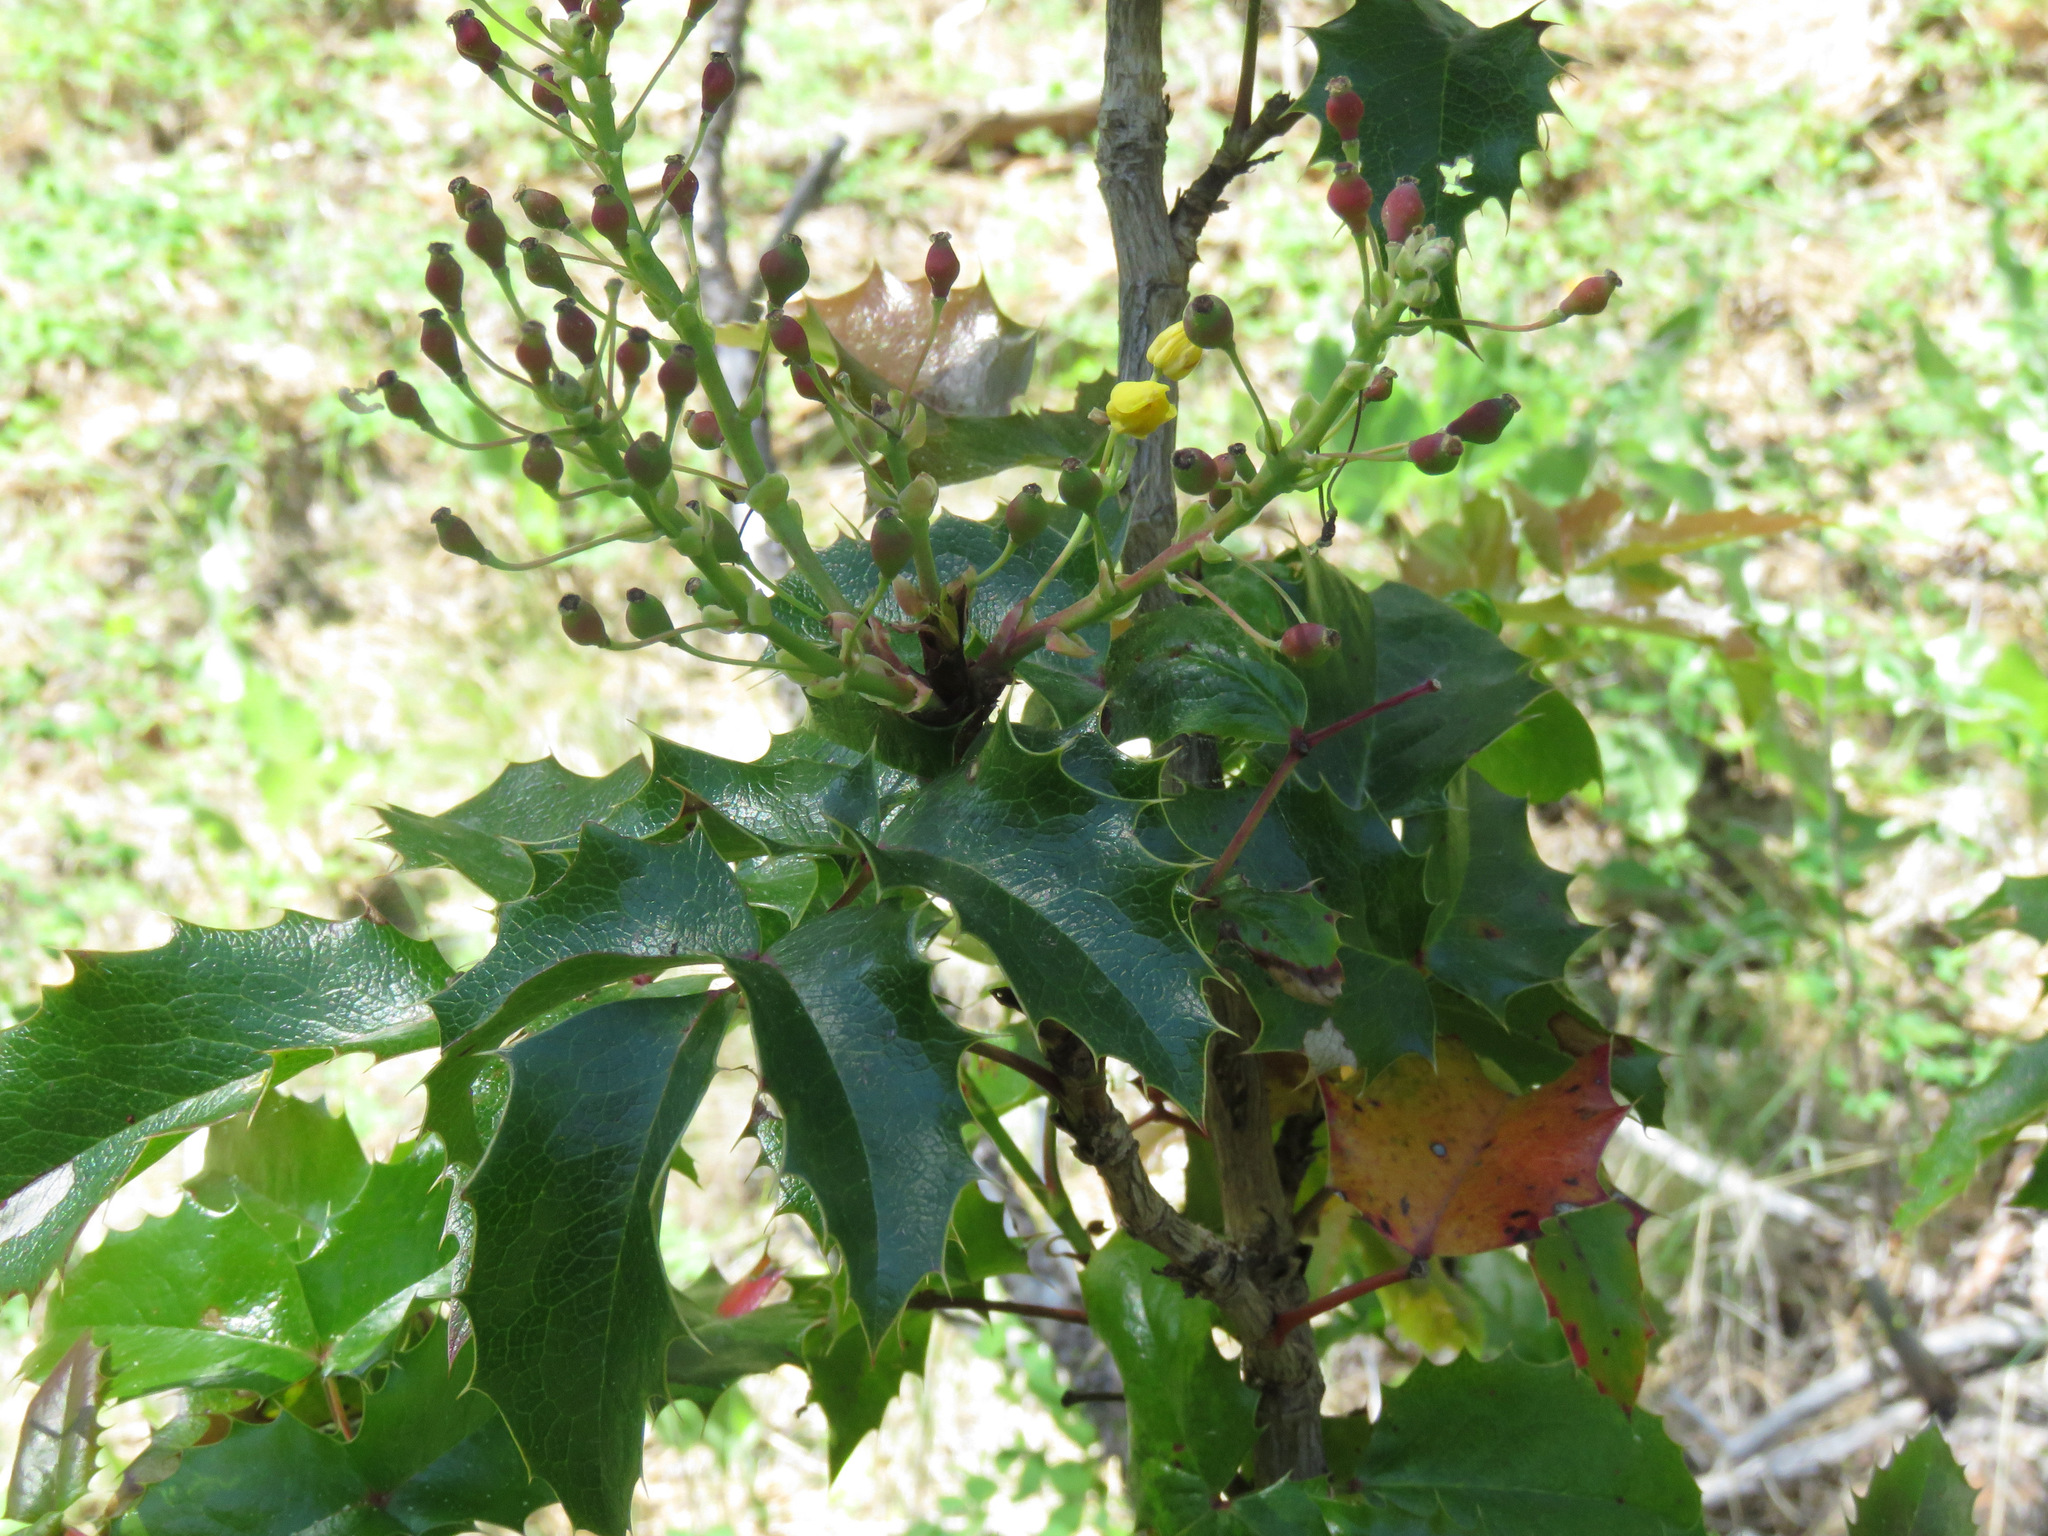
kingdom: Plantae
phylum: Tracheophyta
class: Magnoliopsida
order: Ranunculales
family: Berberidaceae
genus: Mahonia
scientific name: Mahonia aquifolium
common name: Oregon-grape
